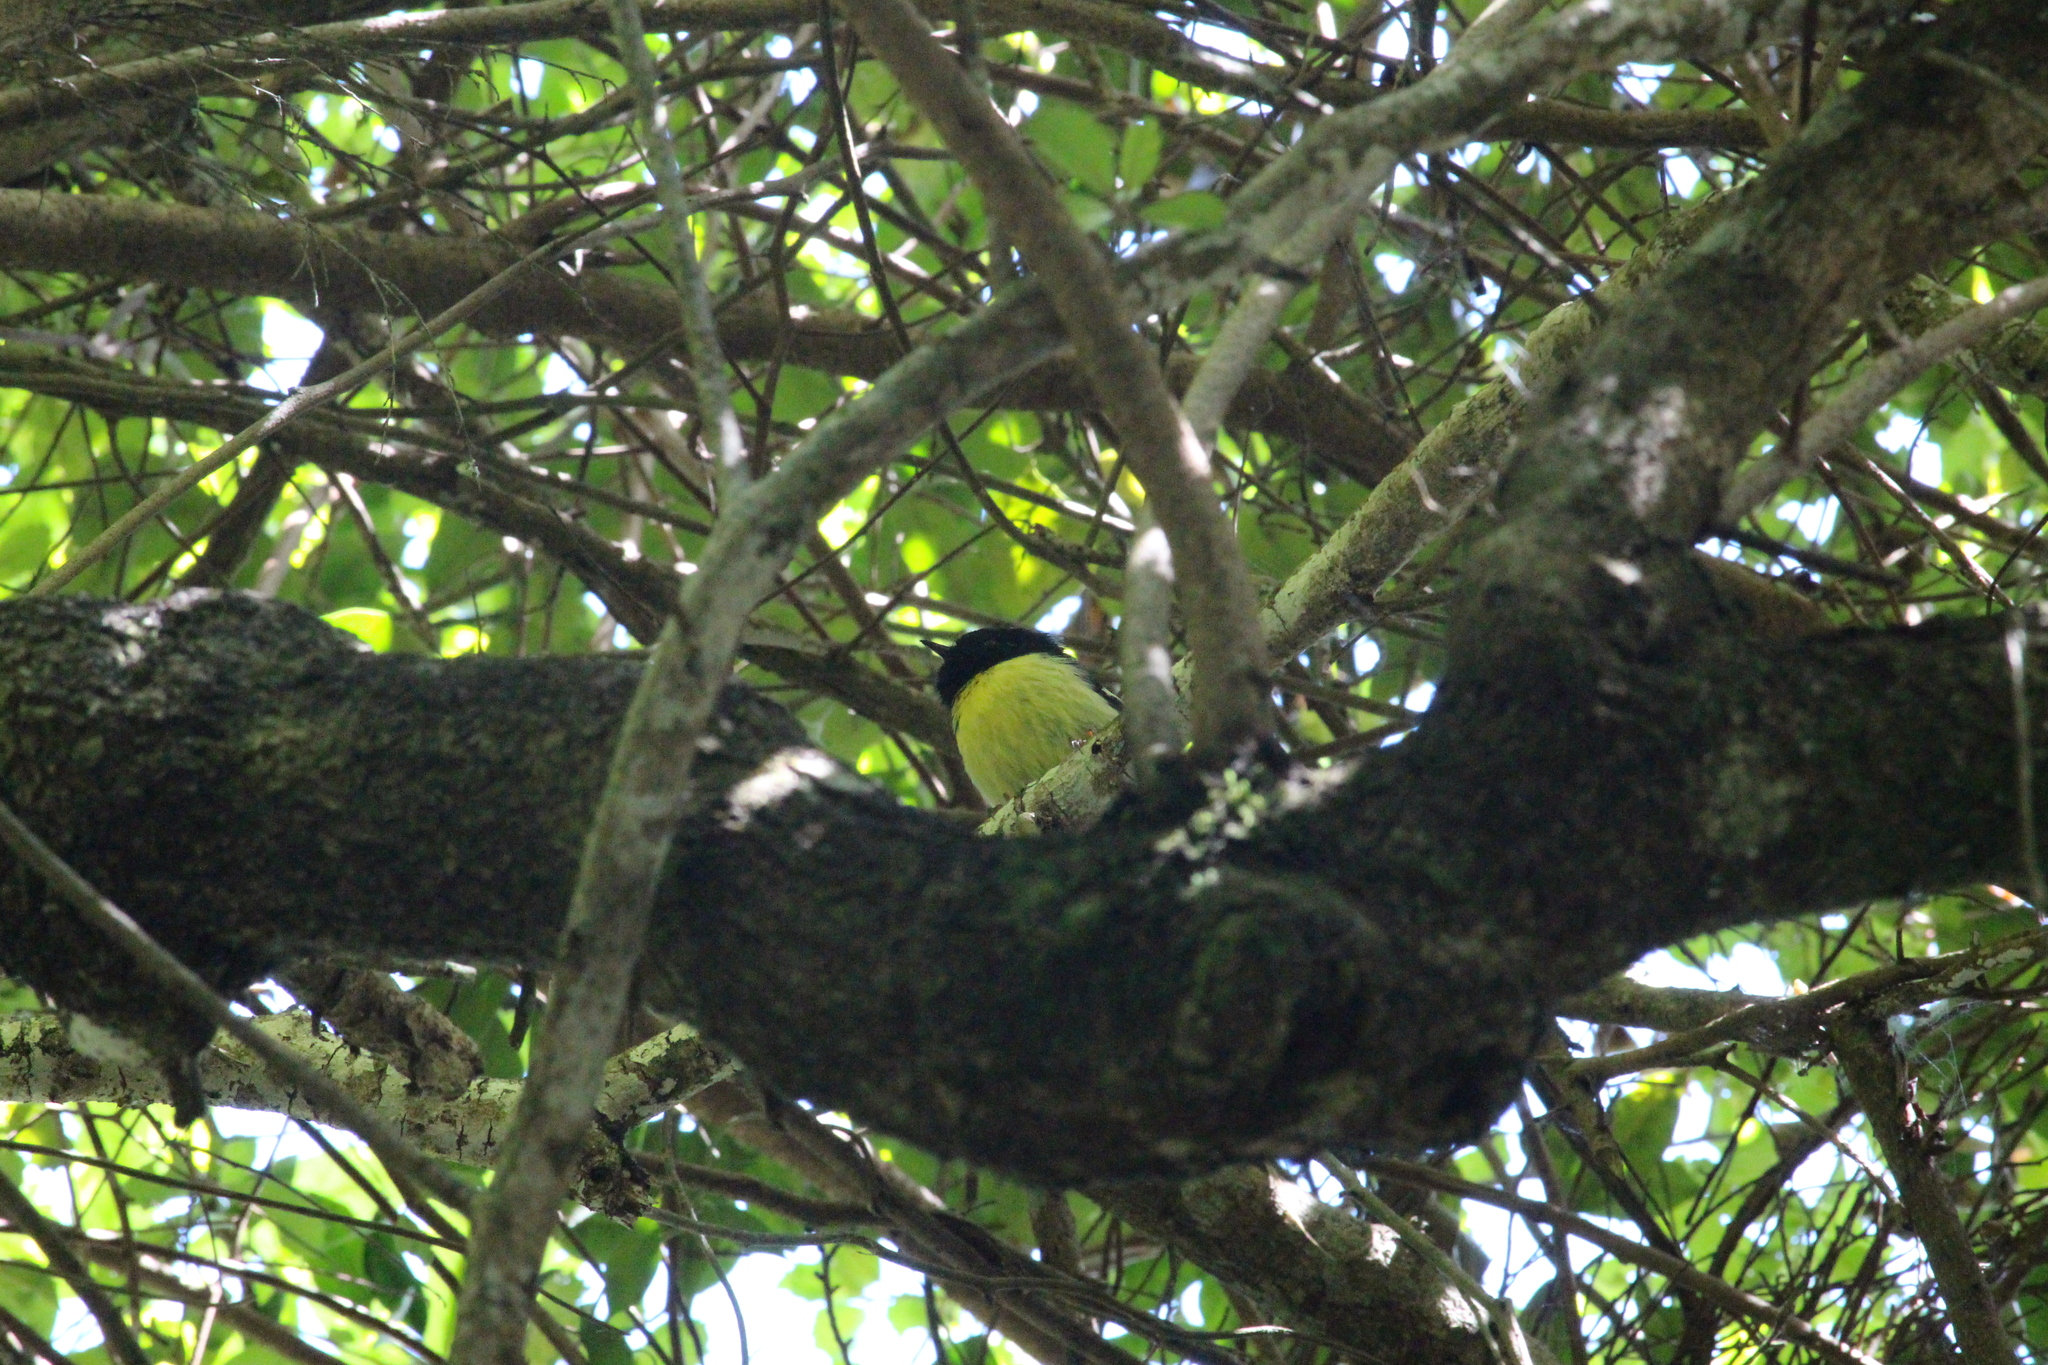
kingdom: Animalia
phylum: Chordata
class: Aves
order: Passeriformes
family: Petroicidae
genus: Petroica
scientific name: Petroica macrocephala
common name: Tomtit
